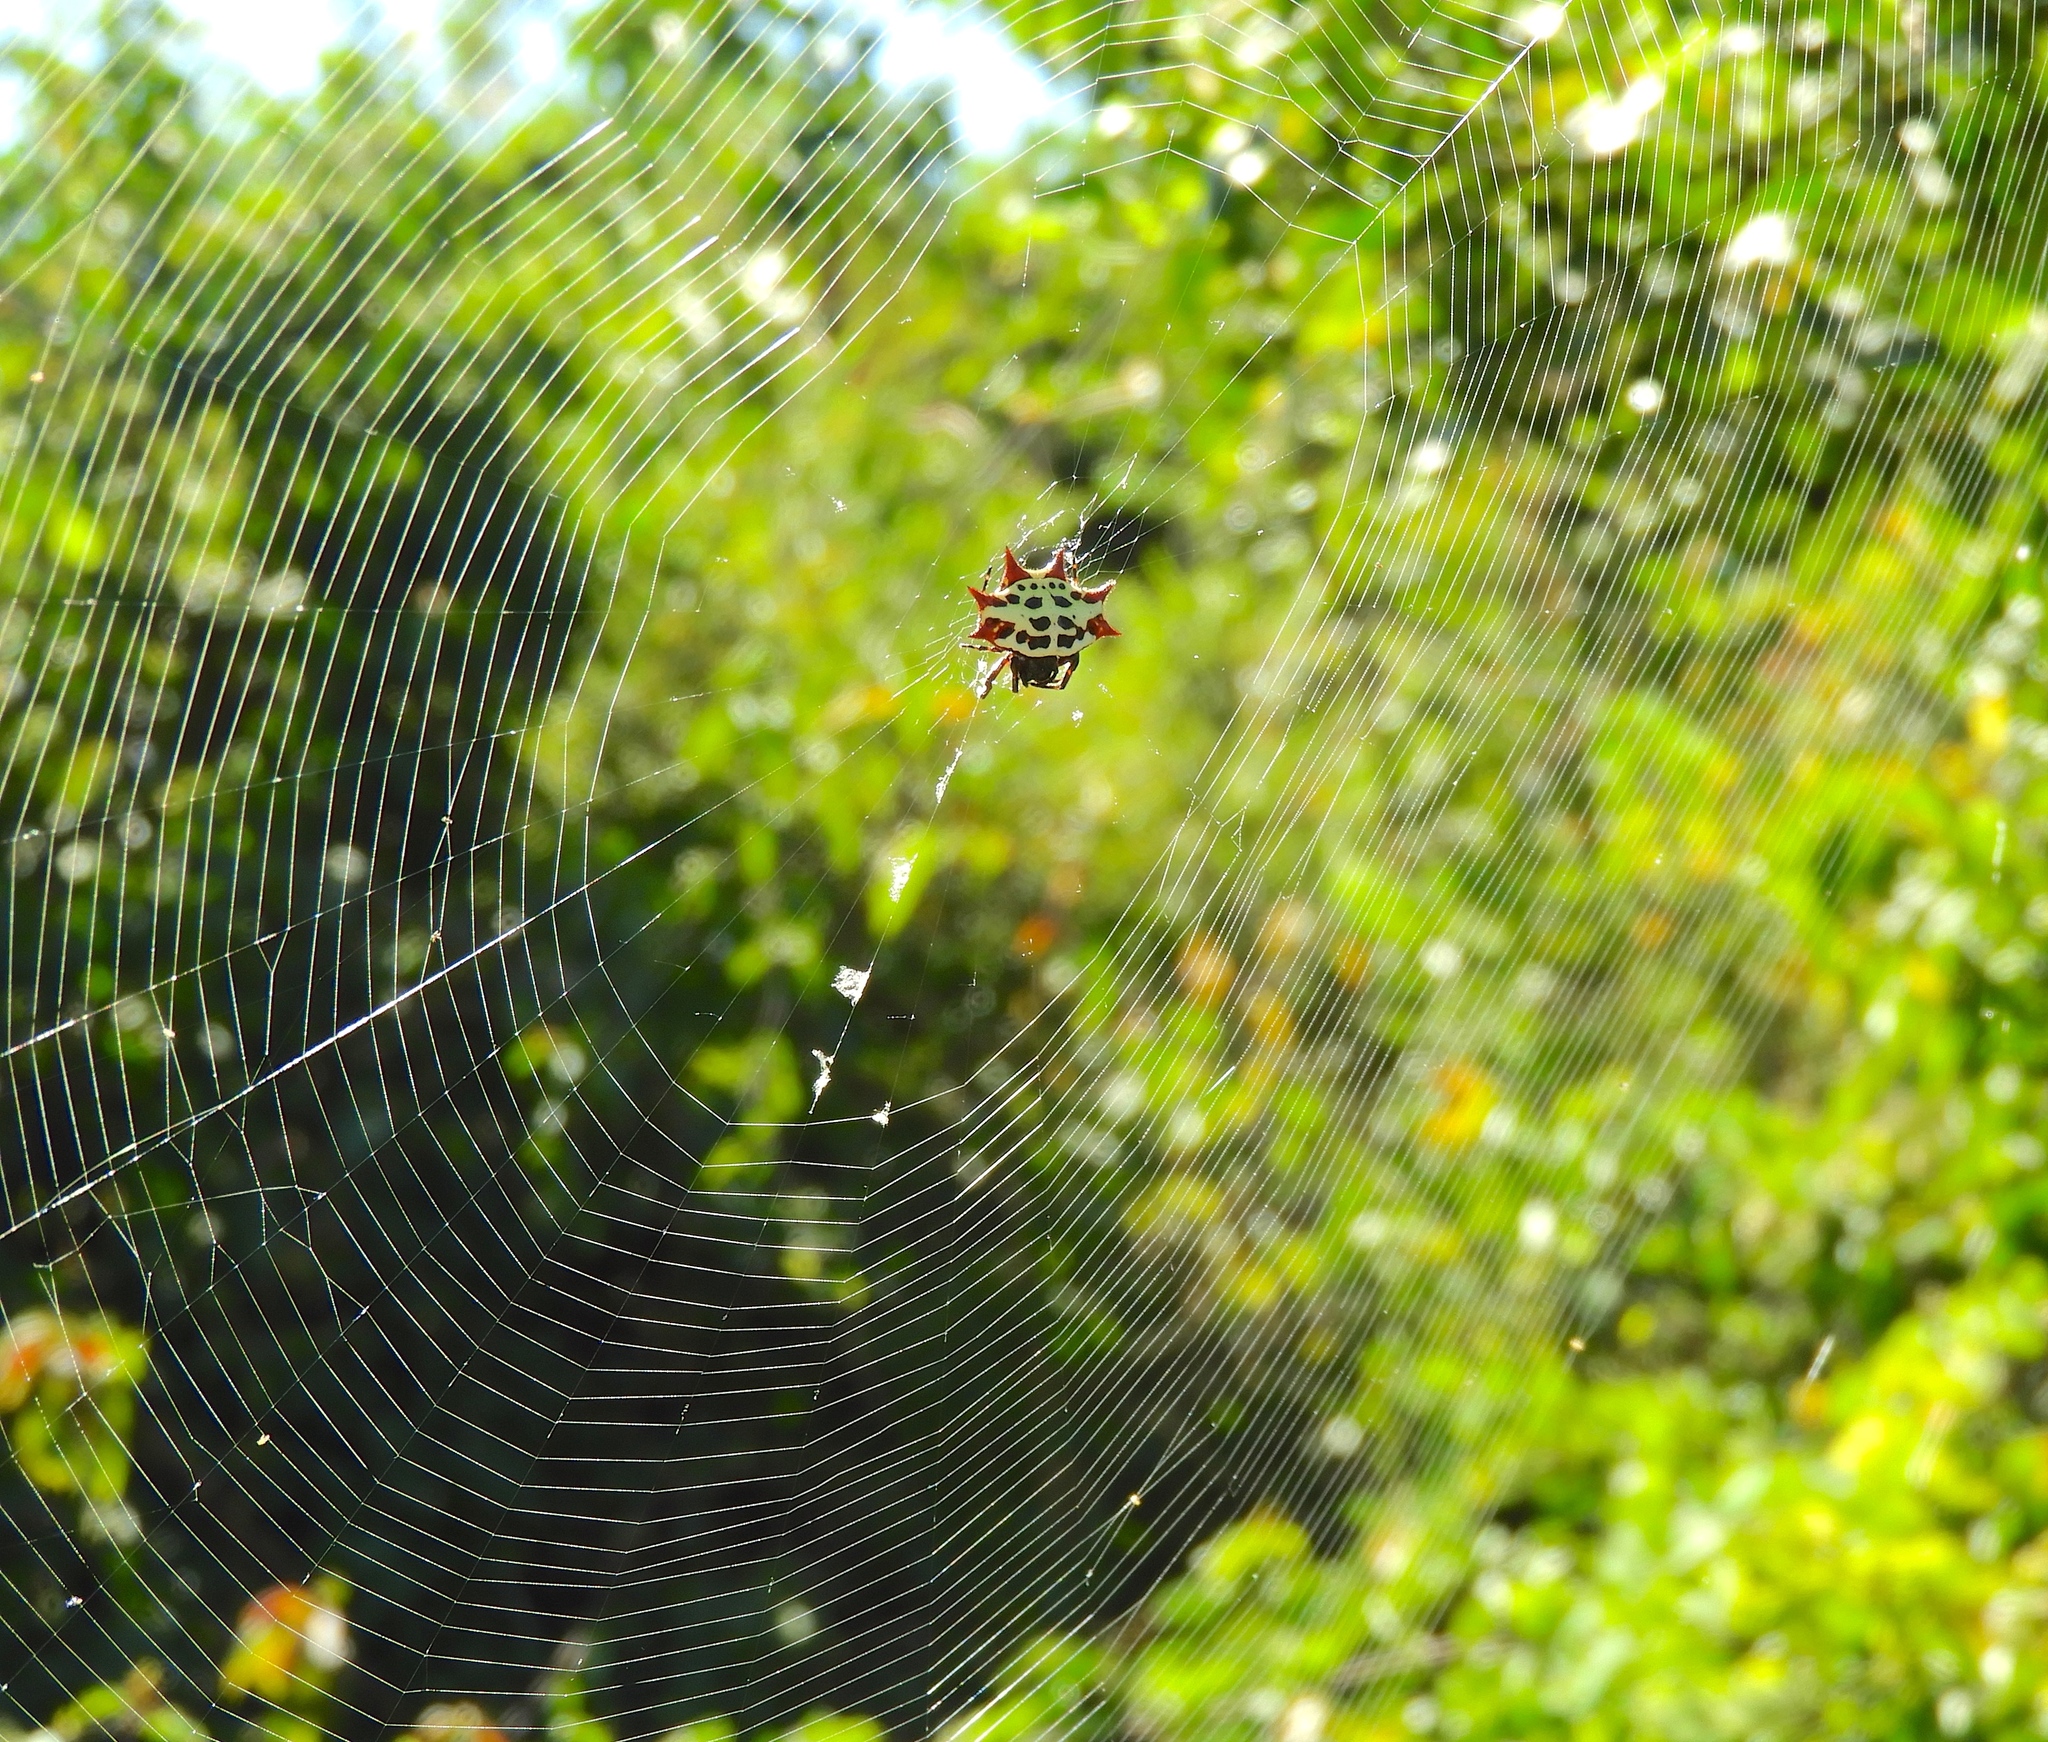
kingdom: Animalia
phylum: Arthropoda
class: Arachnida
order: Araneae
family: Araneidae
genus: Gasteracantha
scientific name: Gasteracantha cancriformis
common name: Orb weavers
